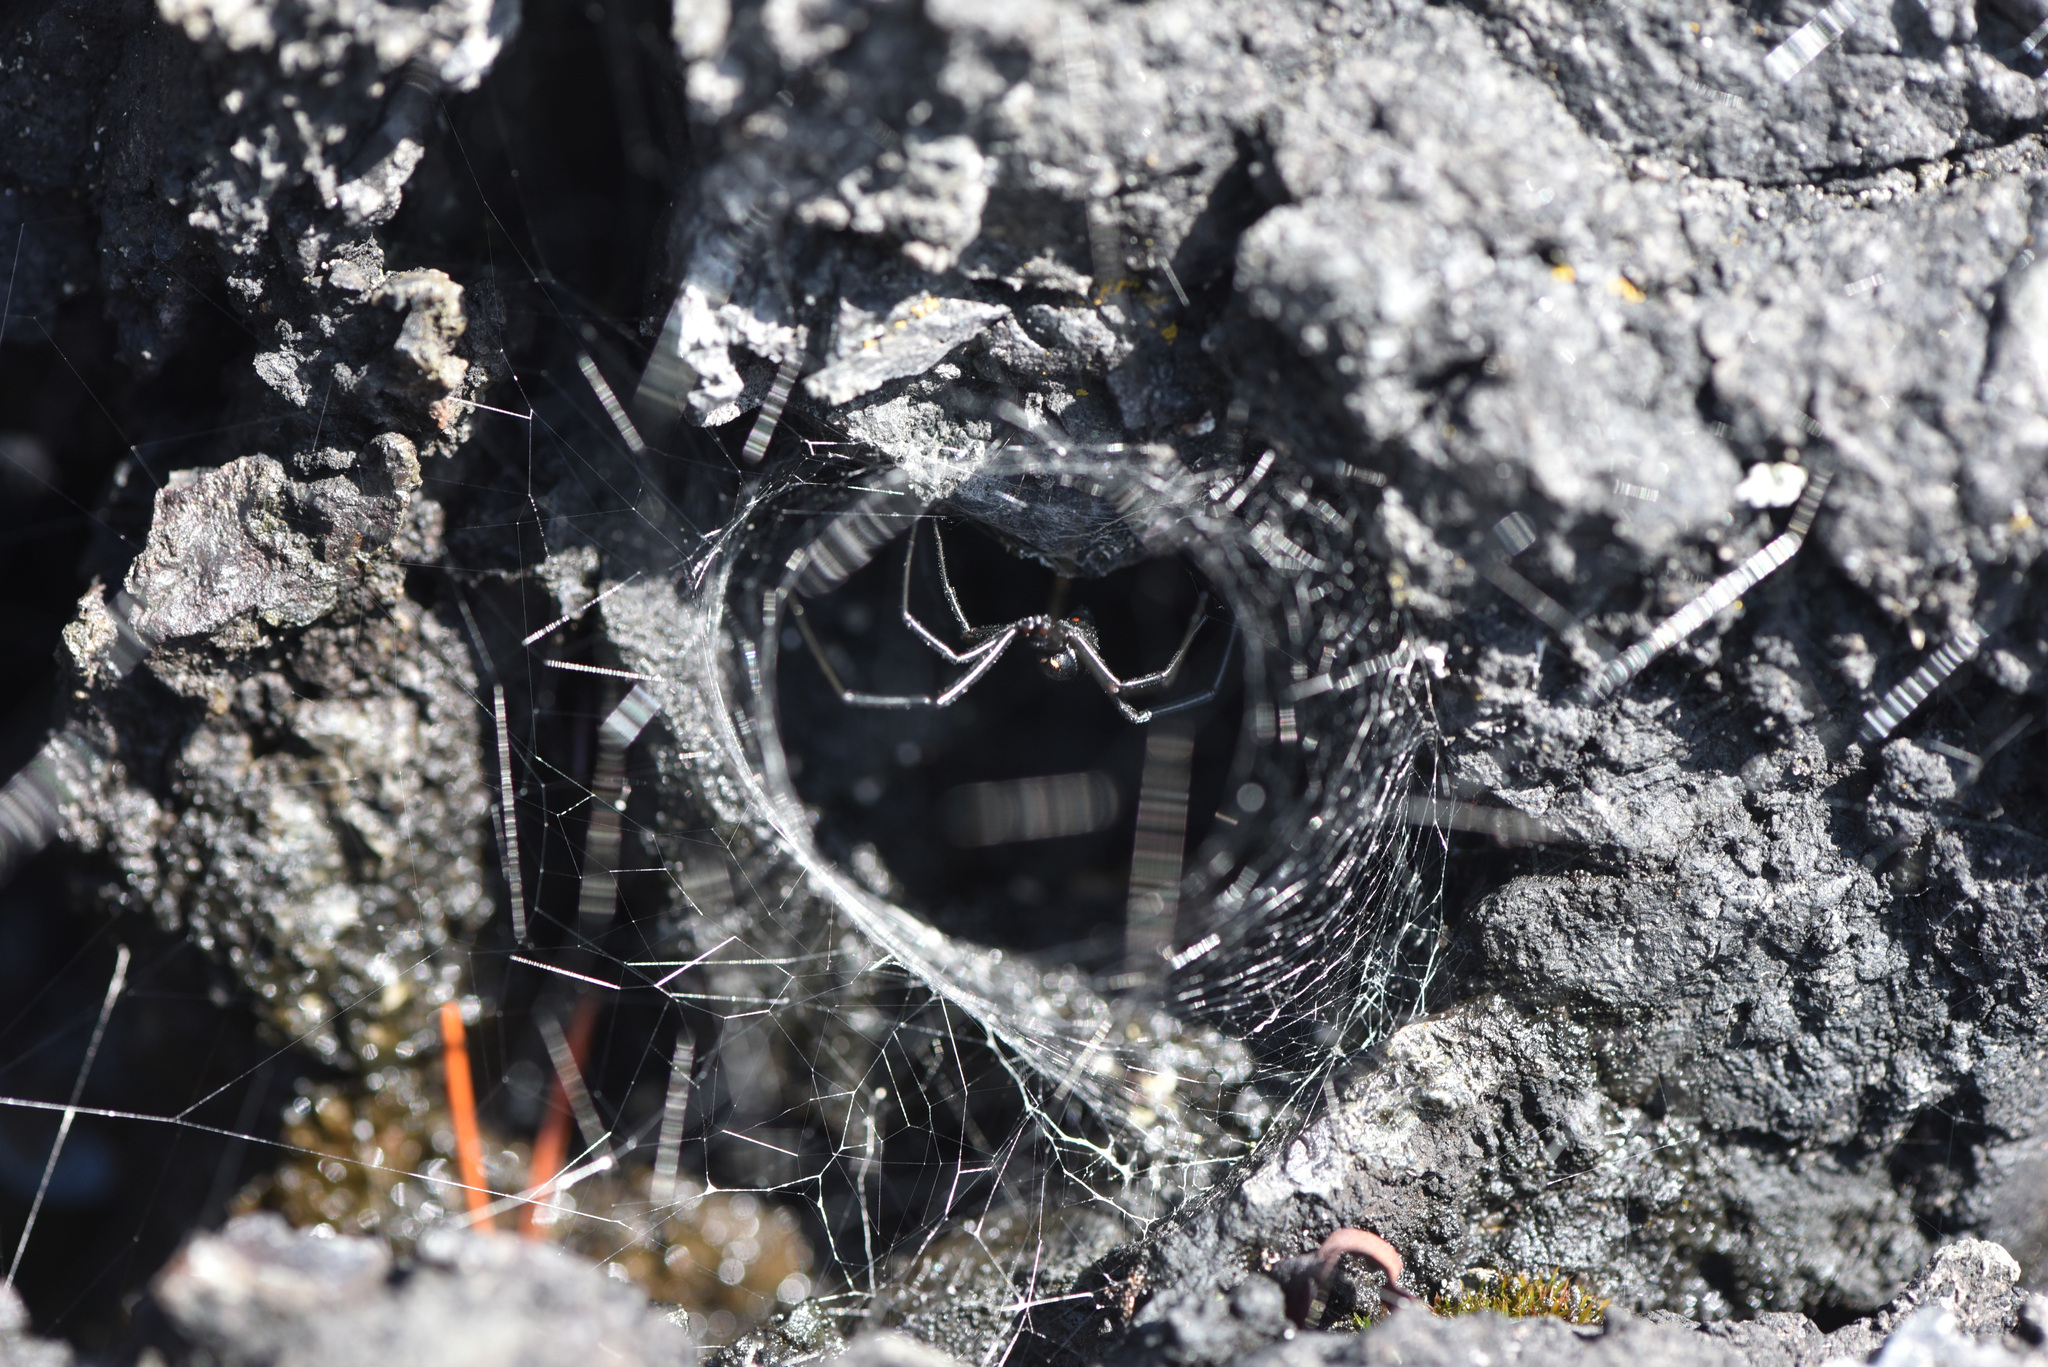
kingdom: Animalia
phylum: Arthropoda
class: Arachnida
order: Araneae
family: Theridiidae
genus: Latrodectus
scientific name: Latrodectus hesperus
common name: Western black widow
